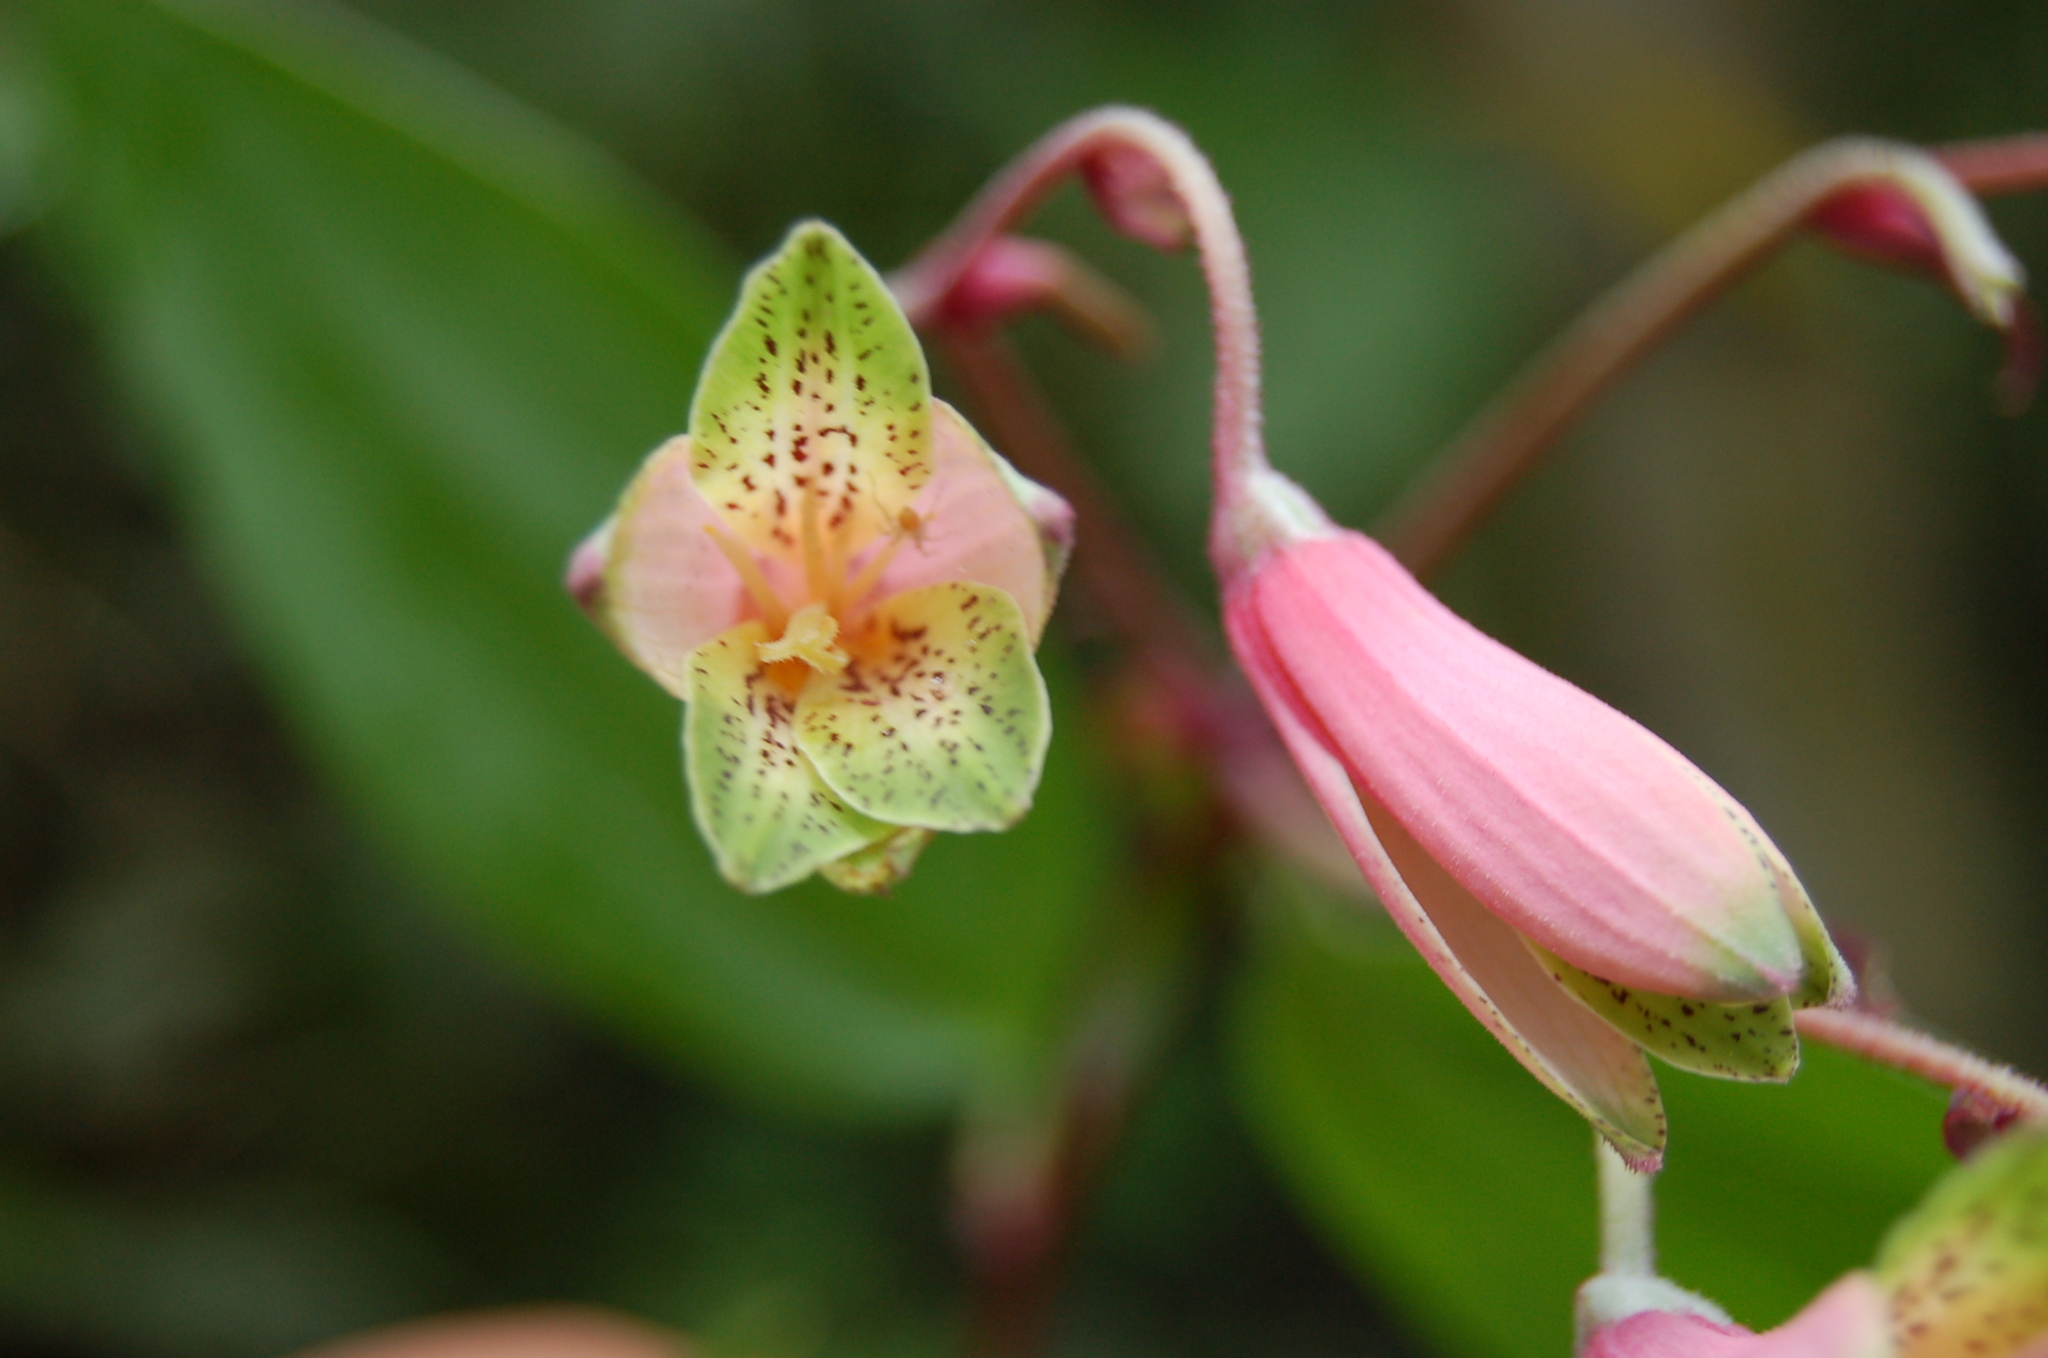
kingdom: Plantae
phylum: Tracheophyta
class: Liliopsida
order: Liliales
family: Alstroemeriaceae
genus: Bomarea
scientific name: Bomarea edulis
